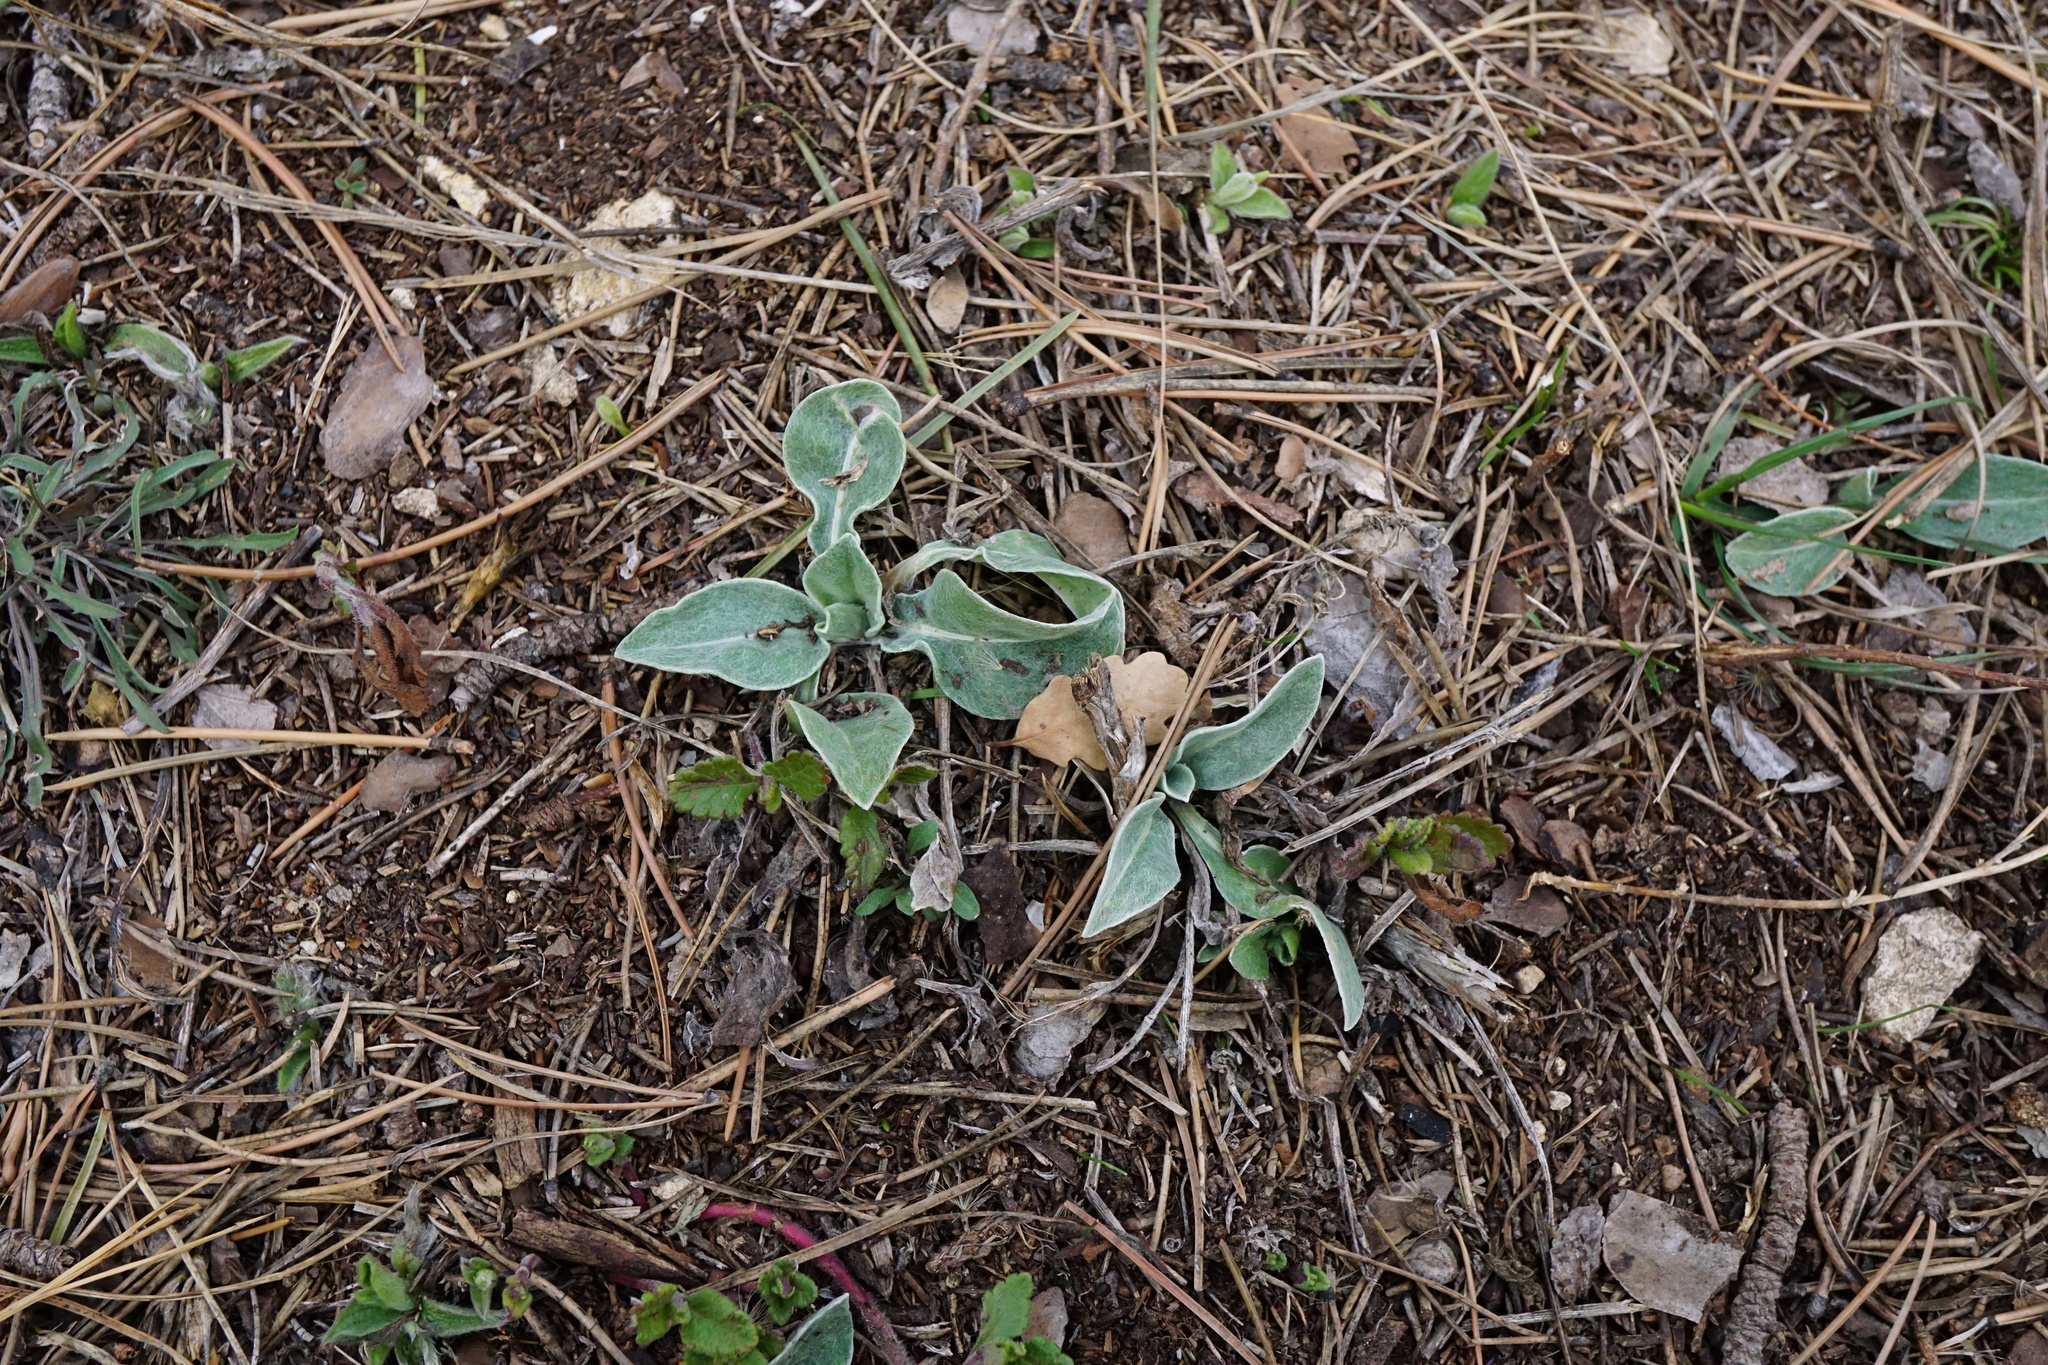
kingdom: Plantae
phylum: Tracheophyta
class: Magnoliopsida
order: Asterales
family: Asteraceae
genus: Centaurea
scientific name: Centaurea triumfettii
